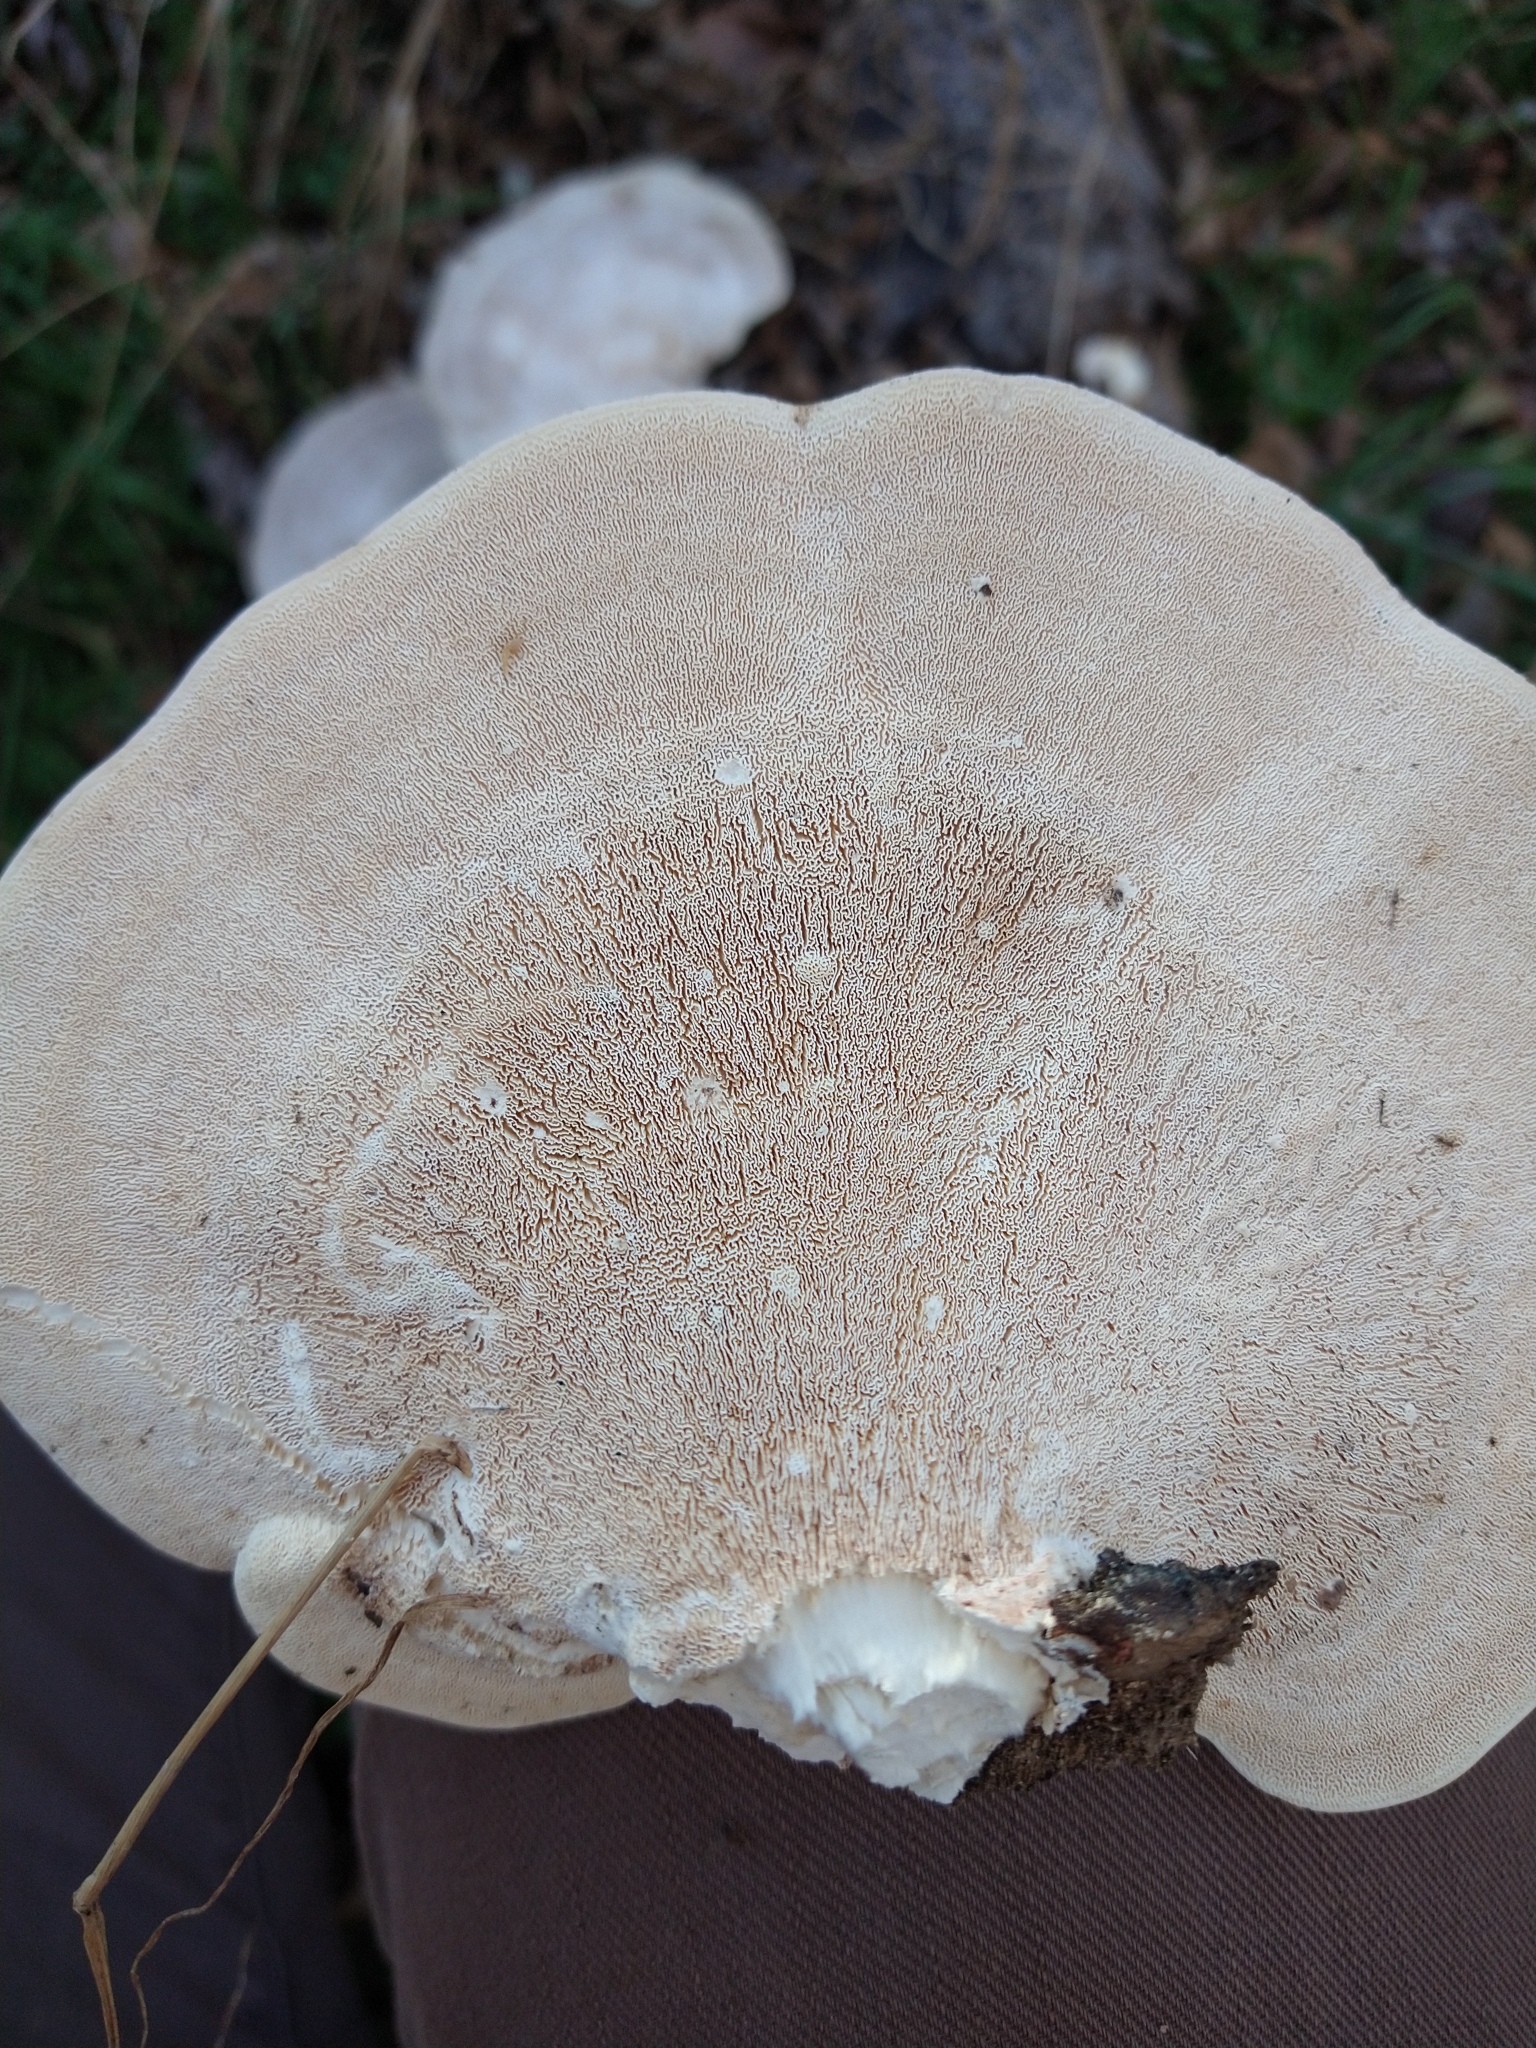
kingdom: Fungi
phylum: Basidiomycota
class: Agaricomycetes
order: Polyporales
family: Polyporaceae
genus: Trametes
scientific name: Trametes
